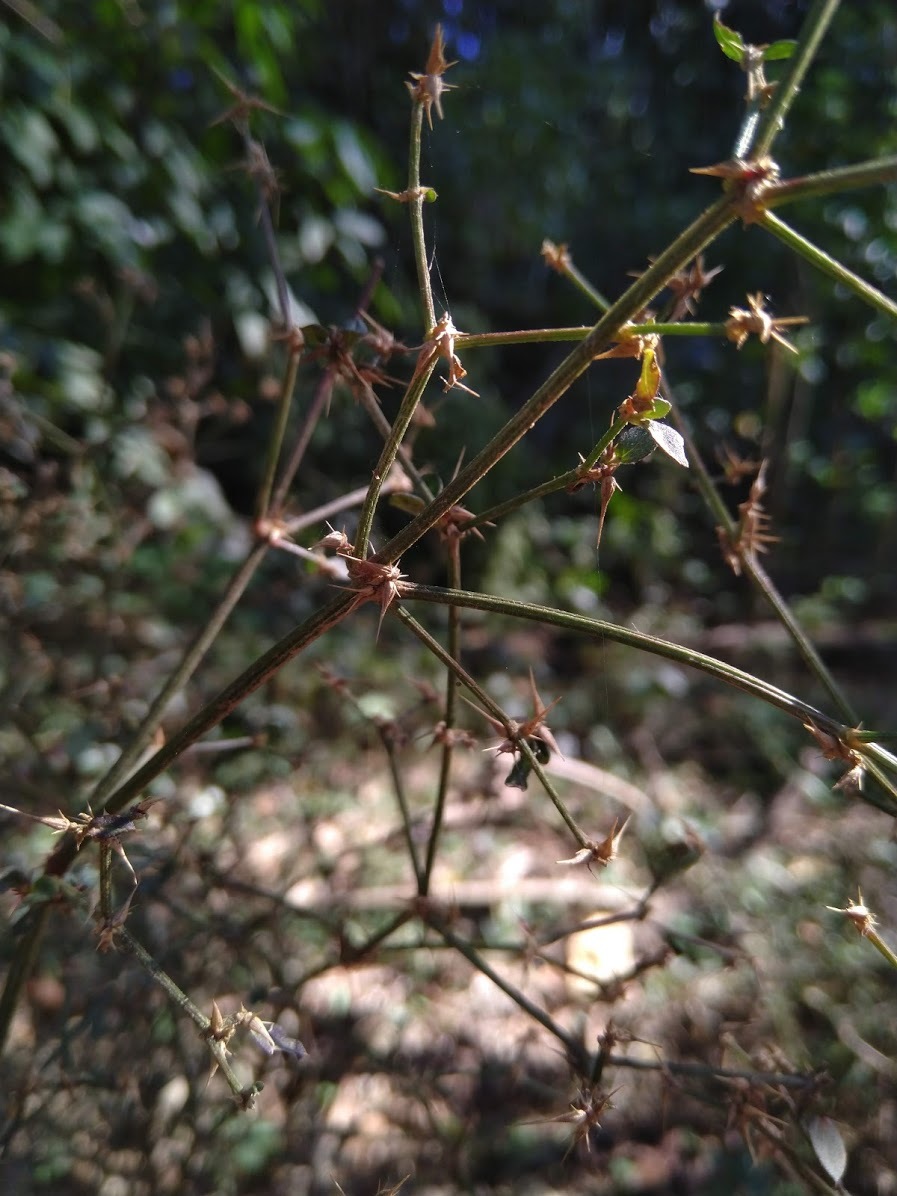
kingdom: Plantae
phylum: Tracheophyta
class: Magnoliopsida
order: Caryophyllales
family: Amaranthaceae
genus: Nyssanthes
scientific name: Nyssanthes diffusa
